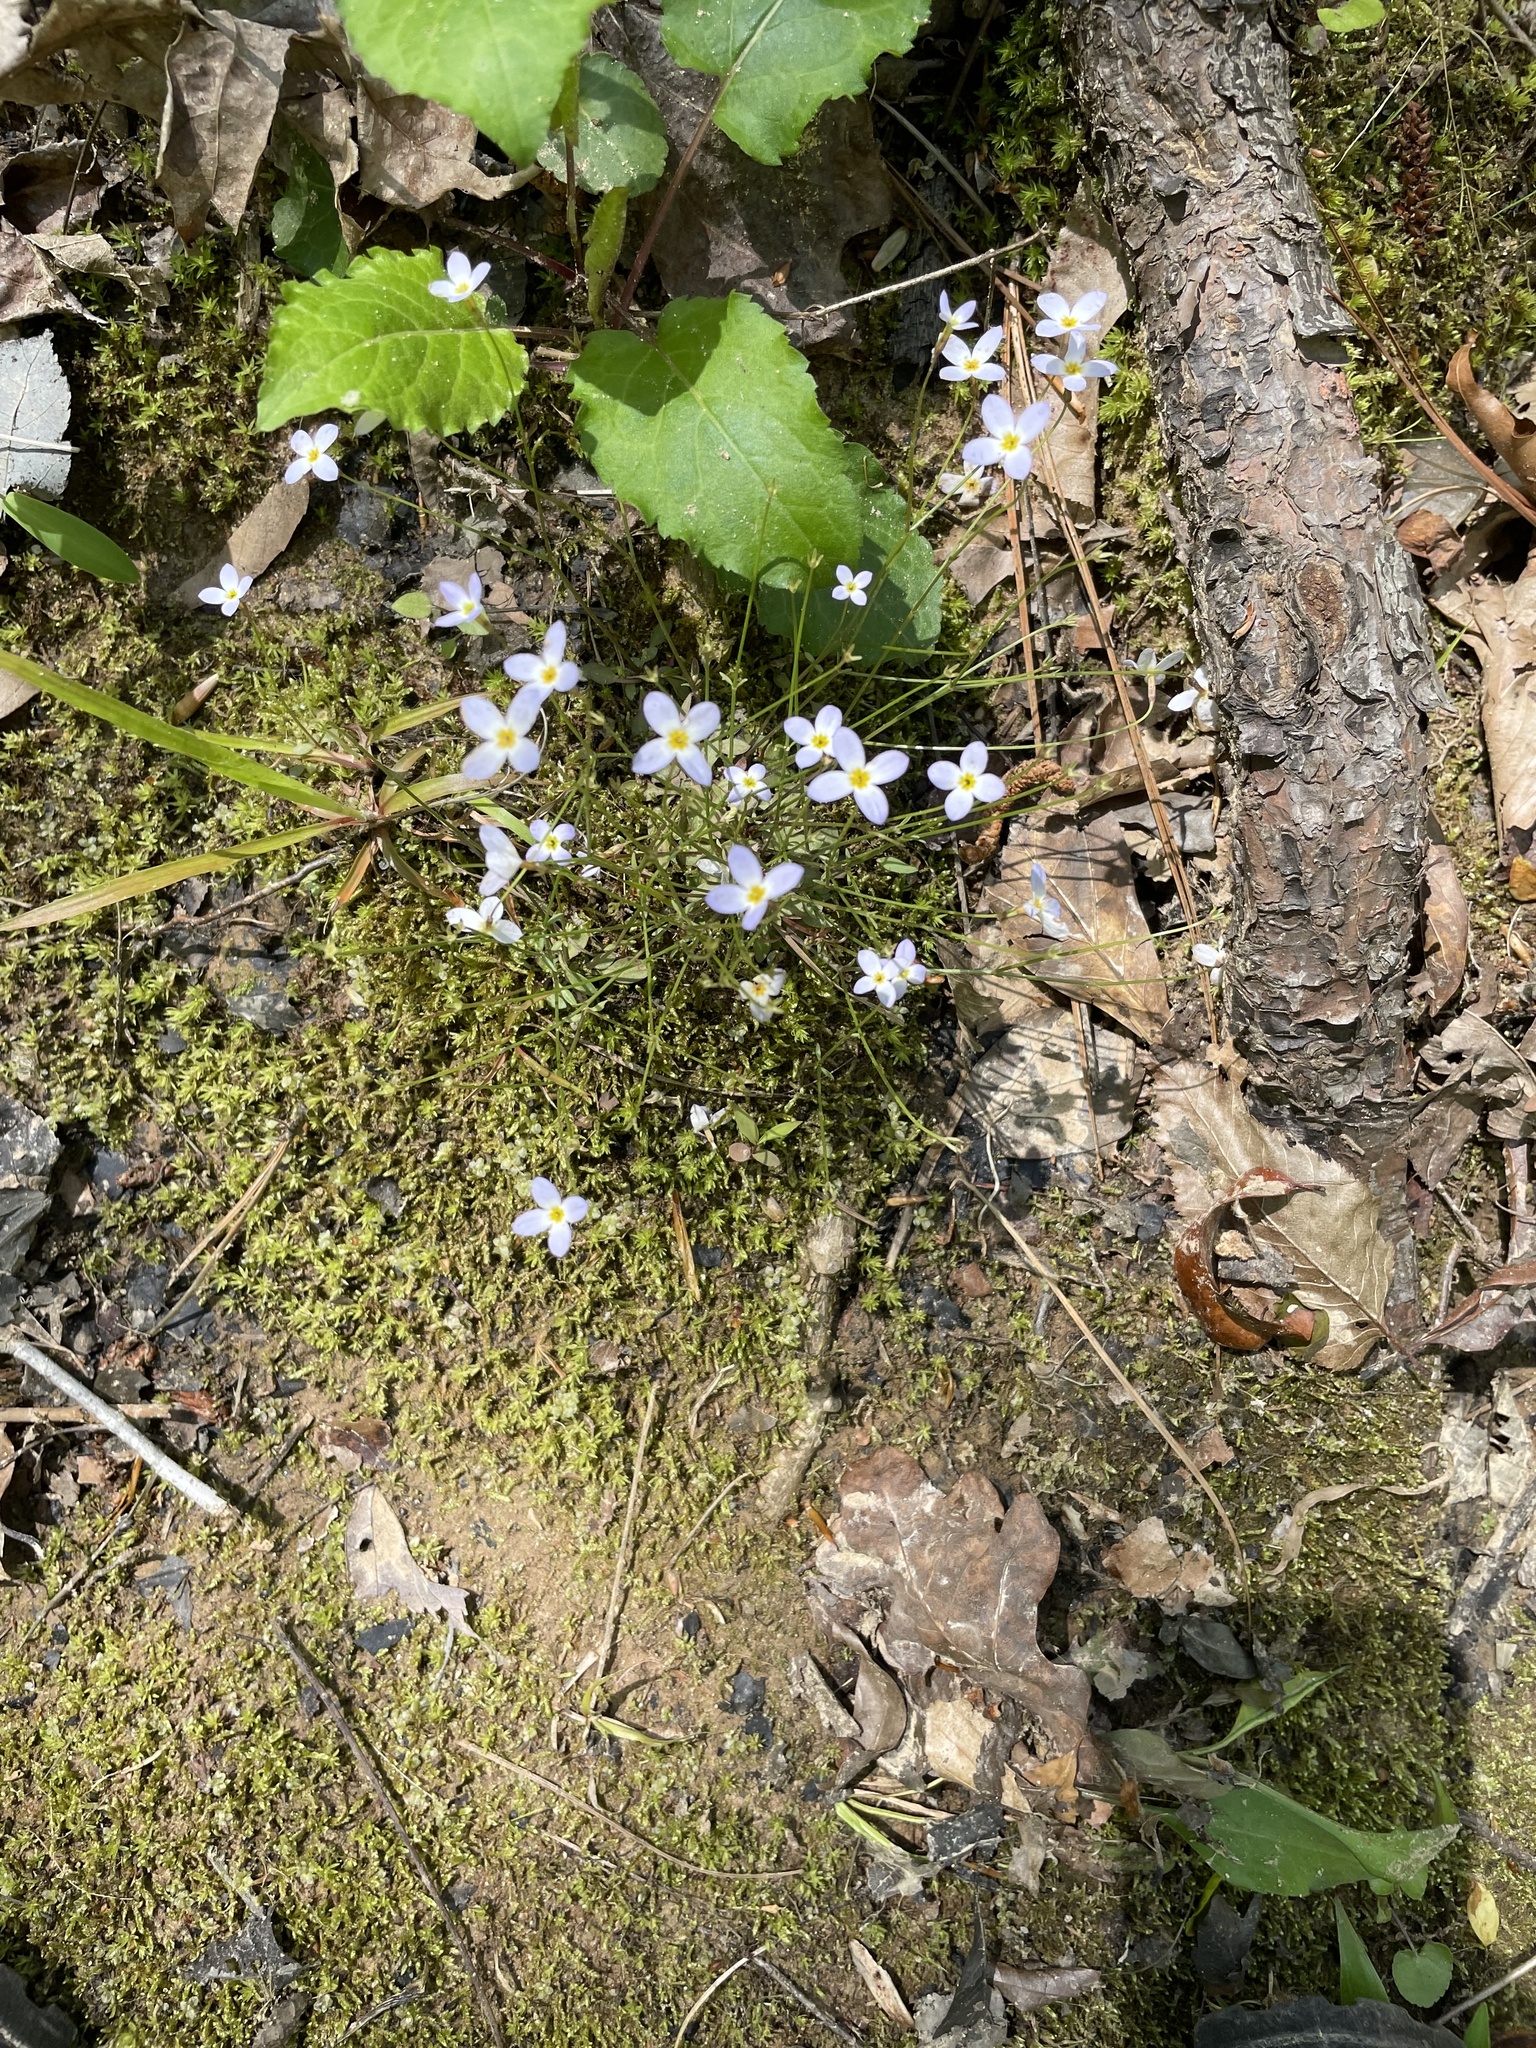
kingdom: Plantae
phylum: Tracheophyta
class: Magnoliopsida
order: Gentianales
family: Rubiaceae
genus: Houstonia
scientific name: Houstonia caerulea
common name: Bluets
